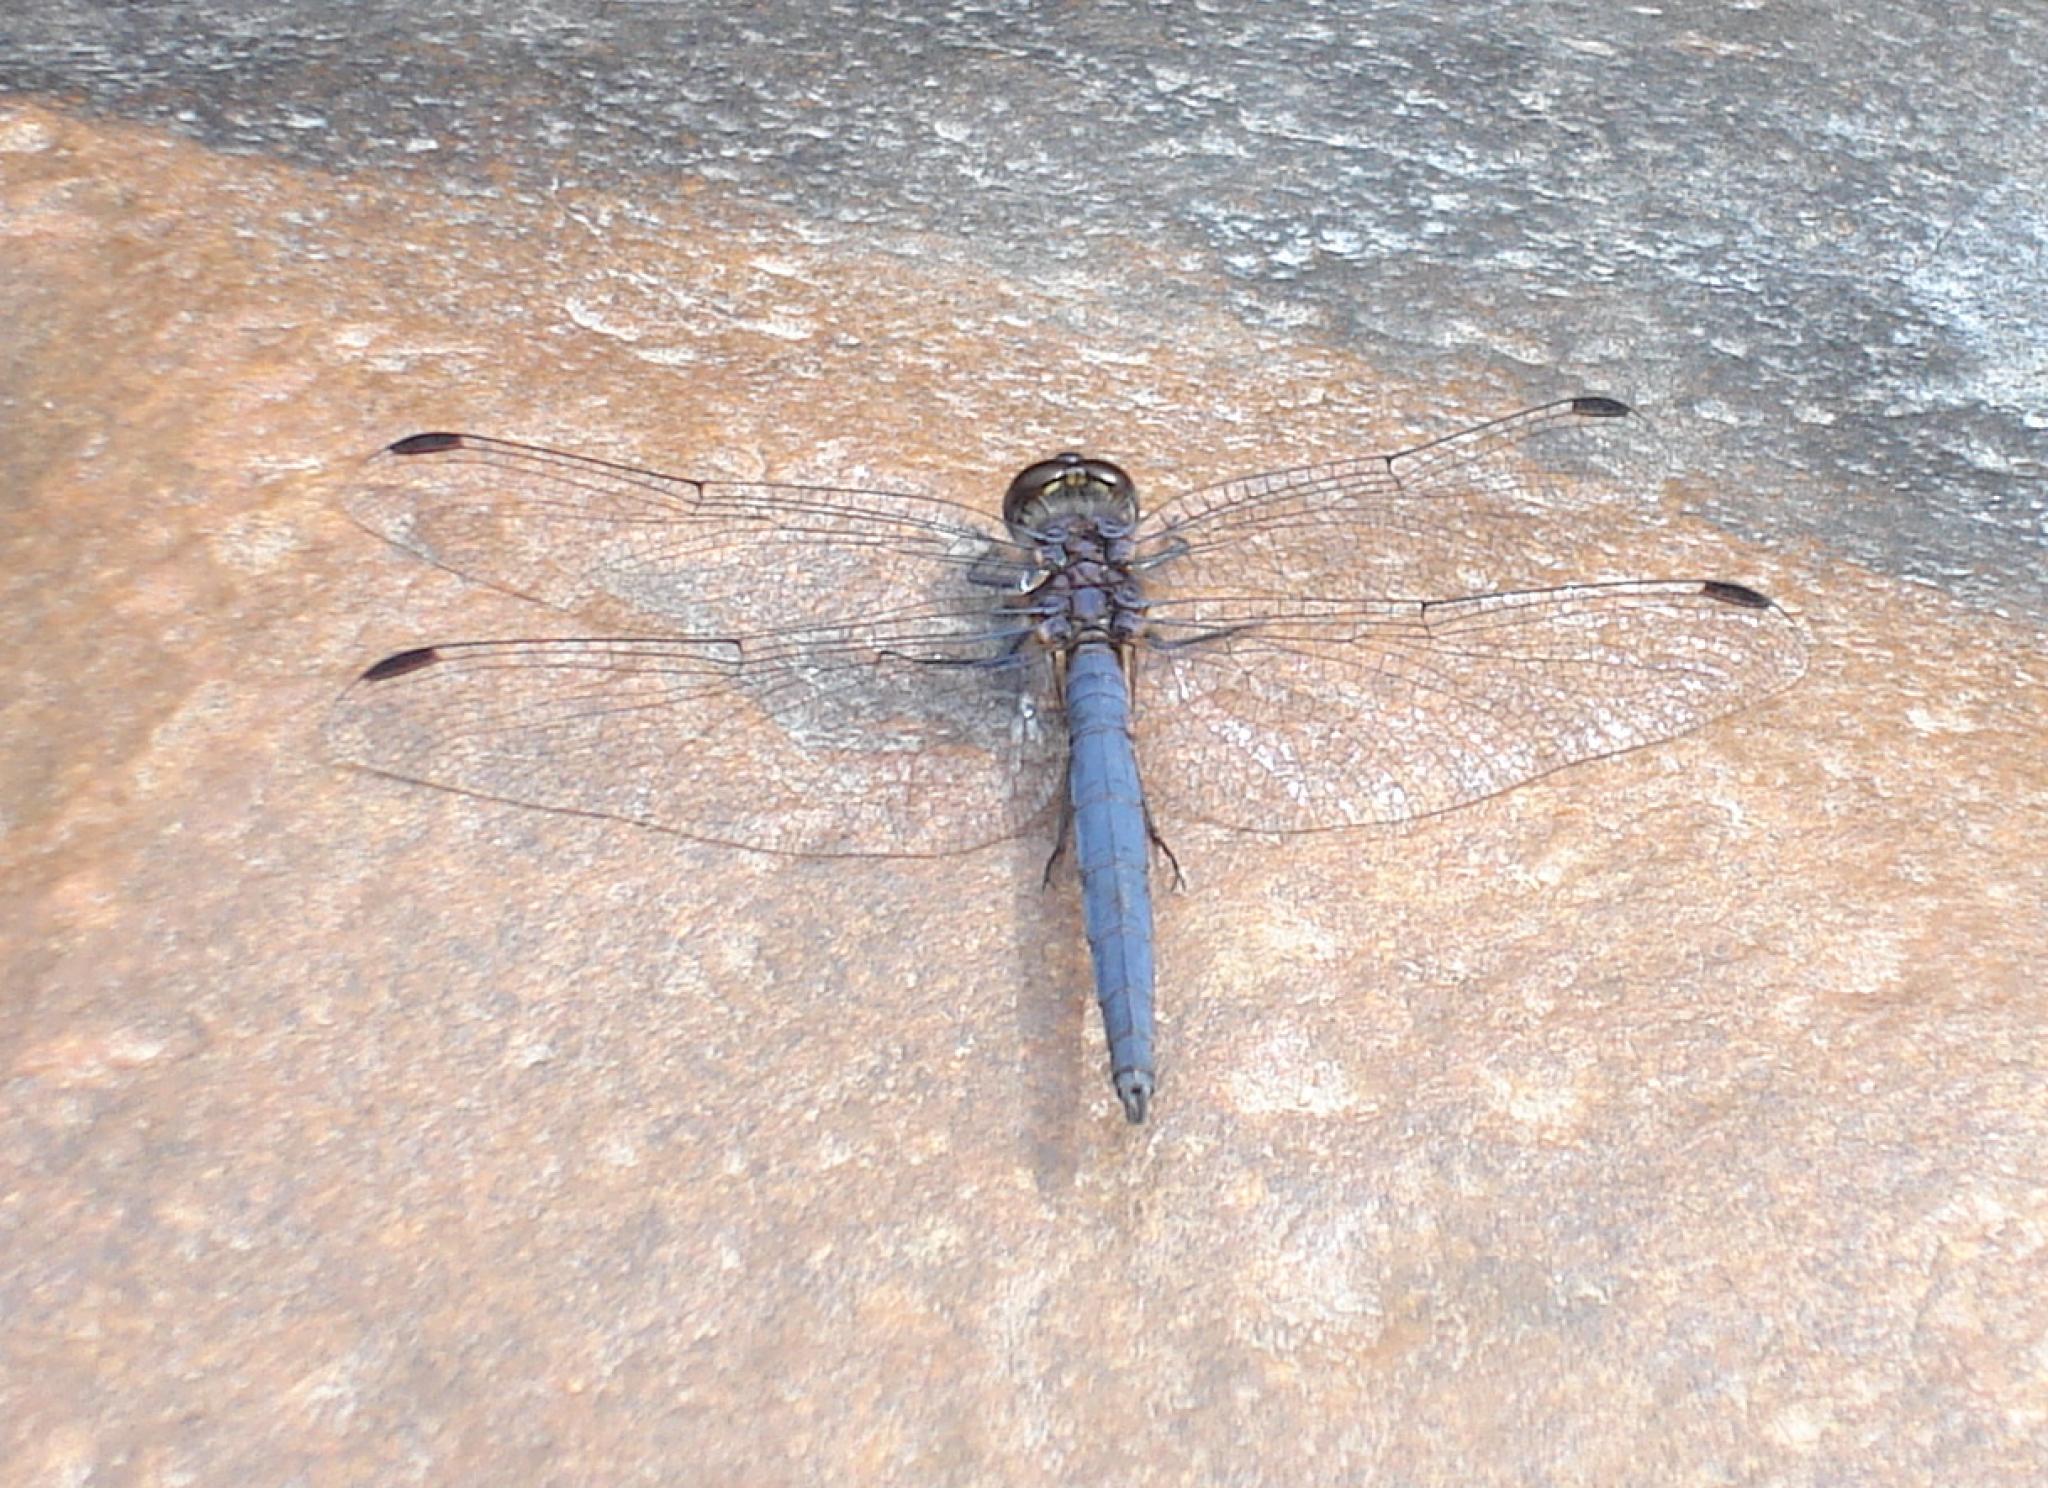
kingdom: Animalia
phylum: Arthropoda
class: Insecta
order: Odonata
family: Libellulidae
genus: Trithemis
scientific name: Trithemis furva
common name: Dark dropwing
